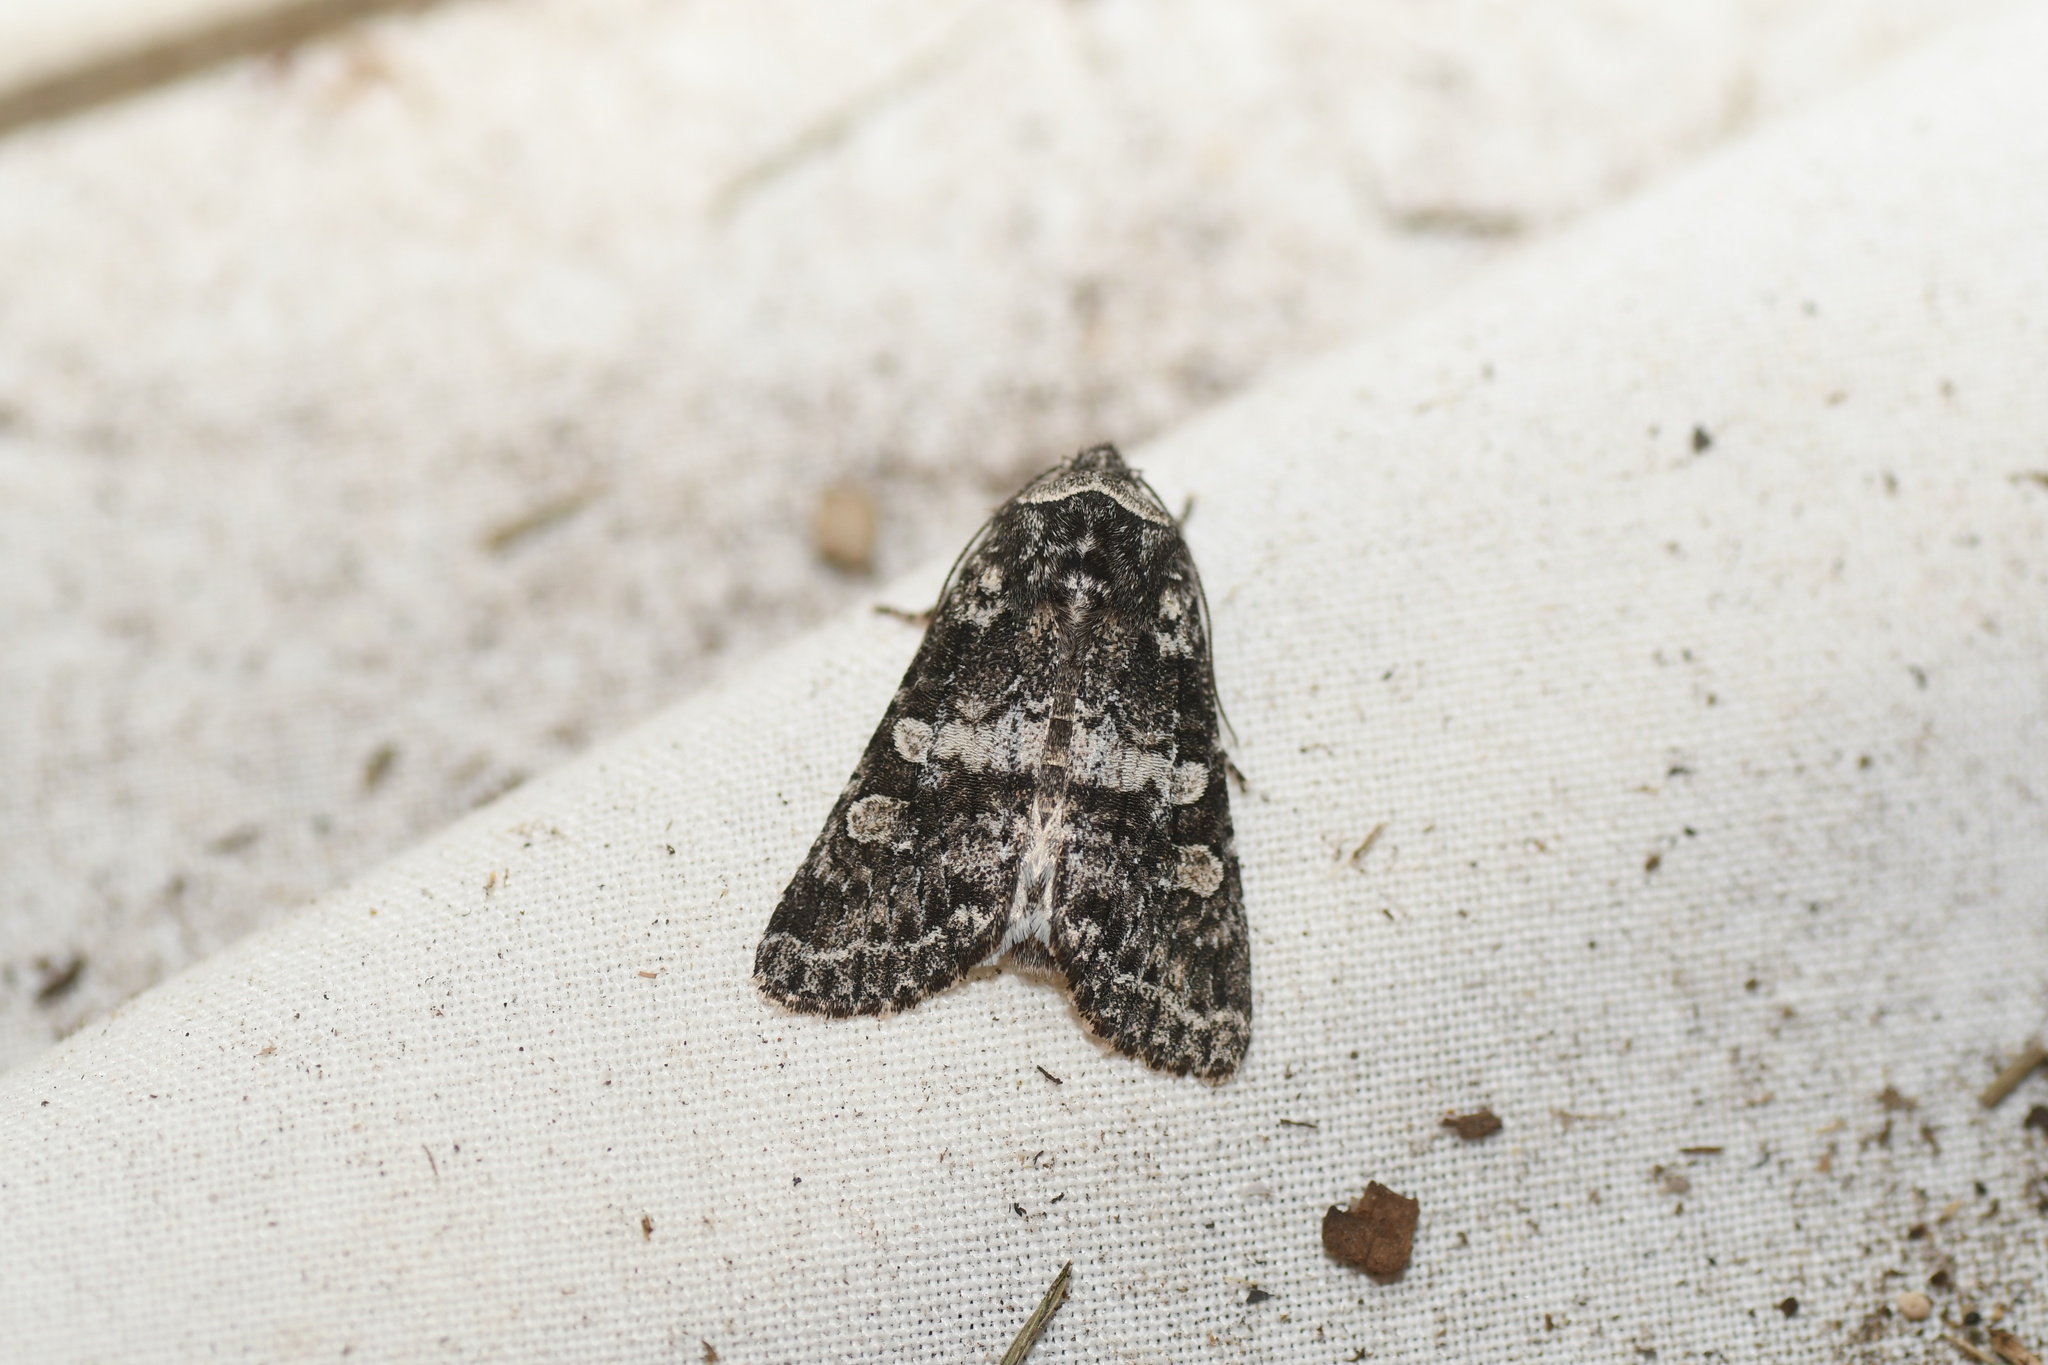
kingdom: Animalia
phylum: Arthropoda
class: Insecta
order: Lepidoptera
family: Noctuidae
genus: Egira
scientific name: Egira dolosa
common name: Lined black aspen cat.
